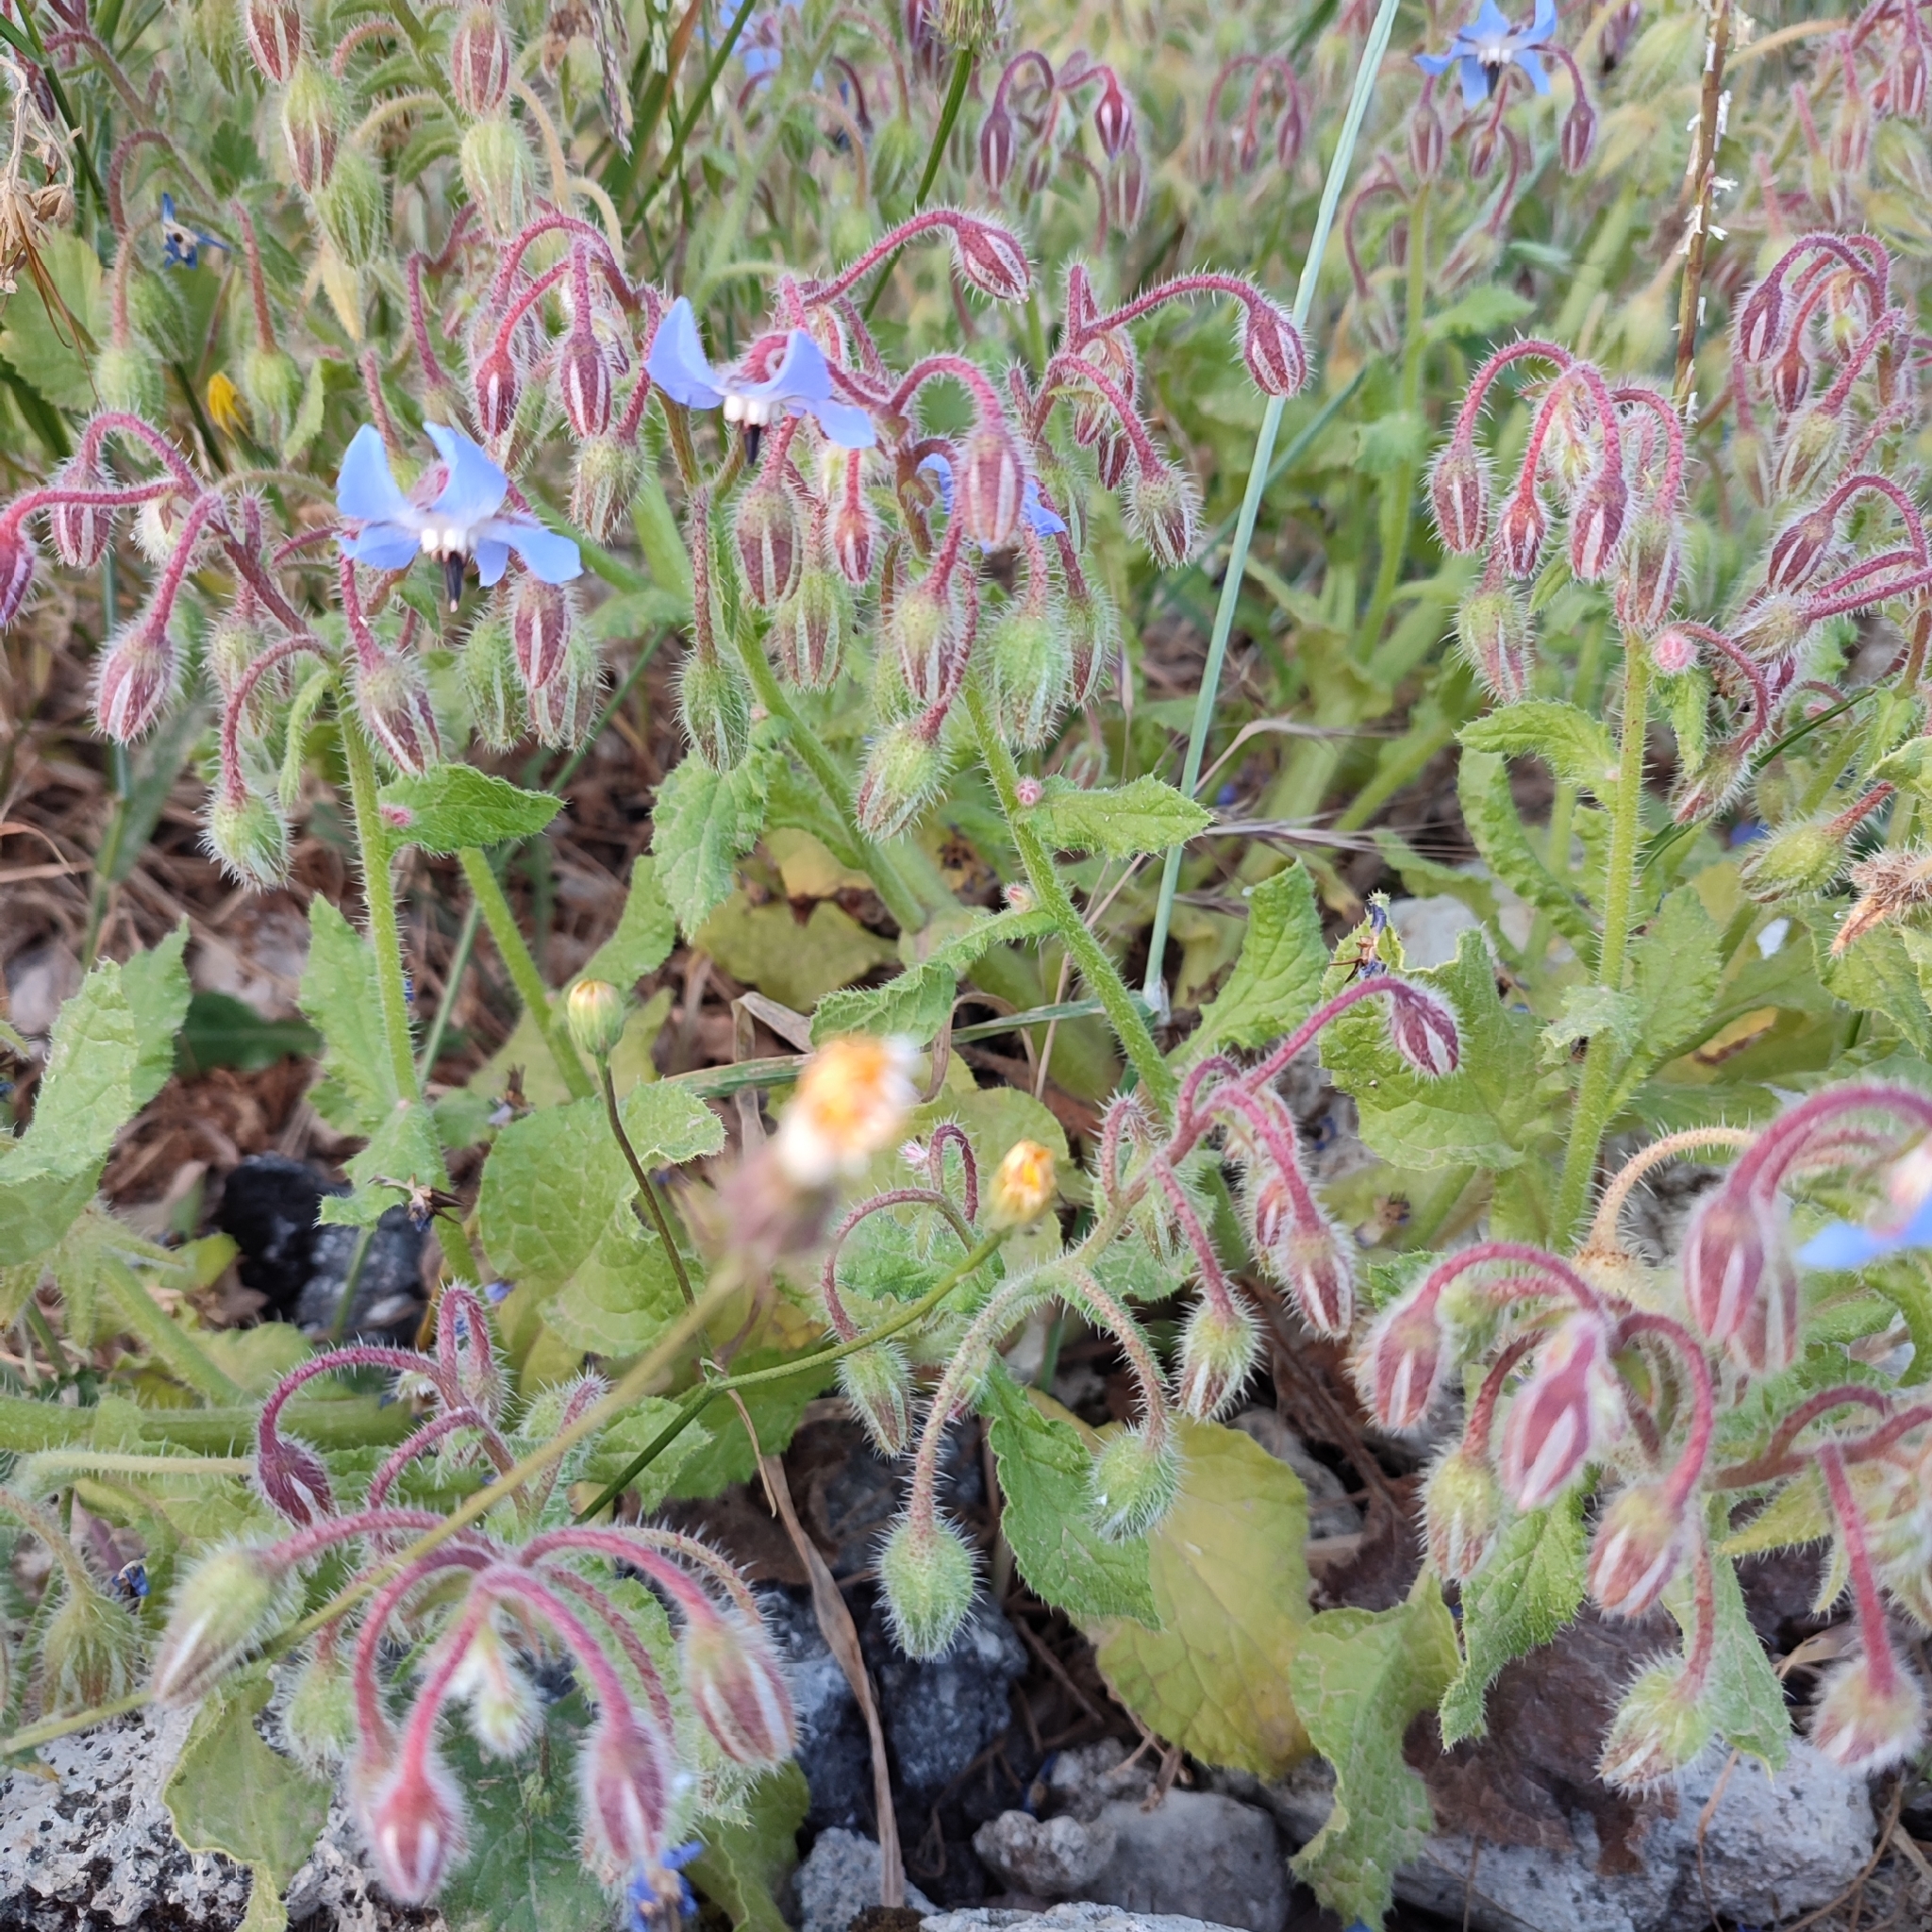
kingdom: Plantae
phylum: Tracheophyta
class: Magnoliopsida
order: Boraginales
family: Boraginaceae
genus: Borago
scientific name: Borago officinalis
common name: Borage
